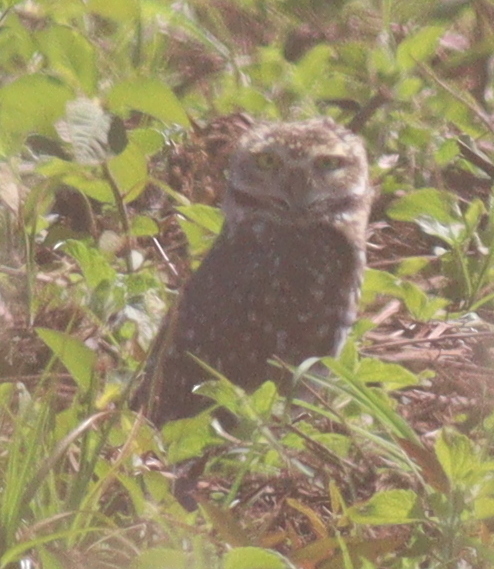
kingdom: Animalia
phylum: Chordata
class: Aves
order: Strigiformes
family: Strigidae
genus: Athene
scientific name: Athene cunicularia
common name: Burrowing owl
